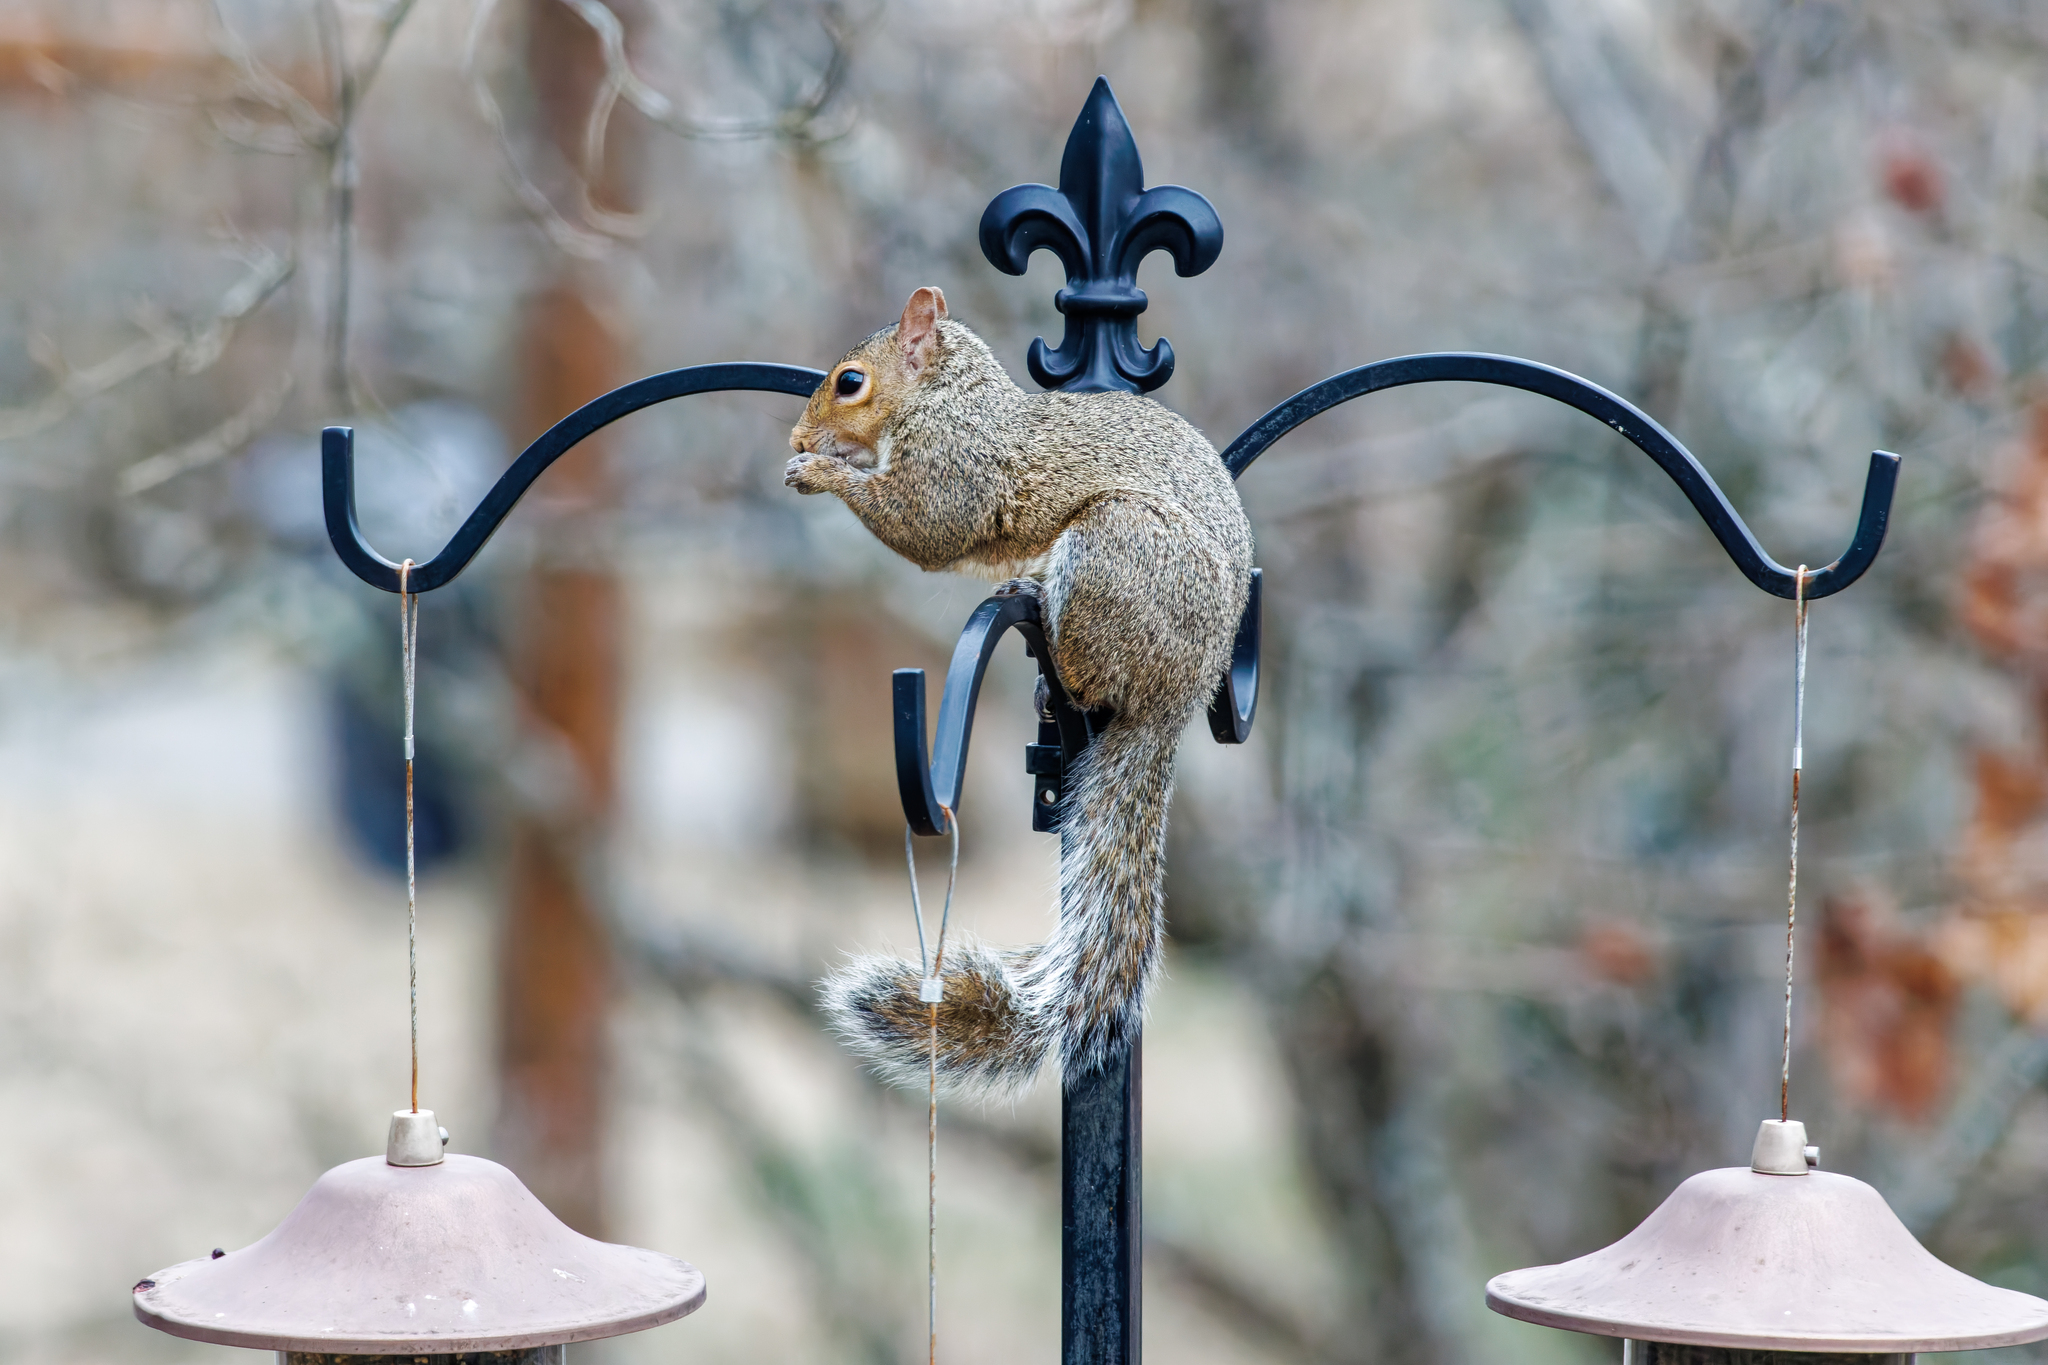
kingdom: Animalia
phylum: Chordata
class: Mammalia
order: Rodentia
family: Sciuridae
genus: Sciurus
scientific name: Sciurus carolinensis
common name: Eastern gray squirrel
